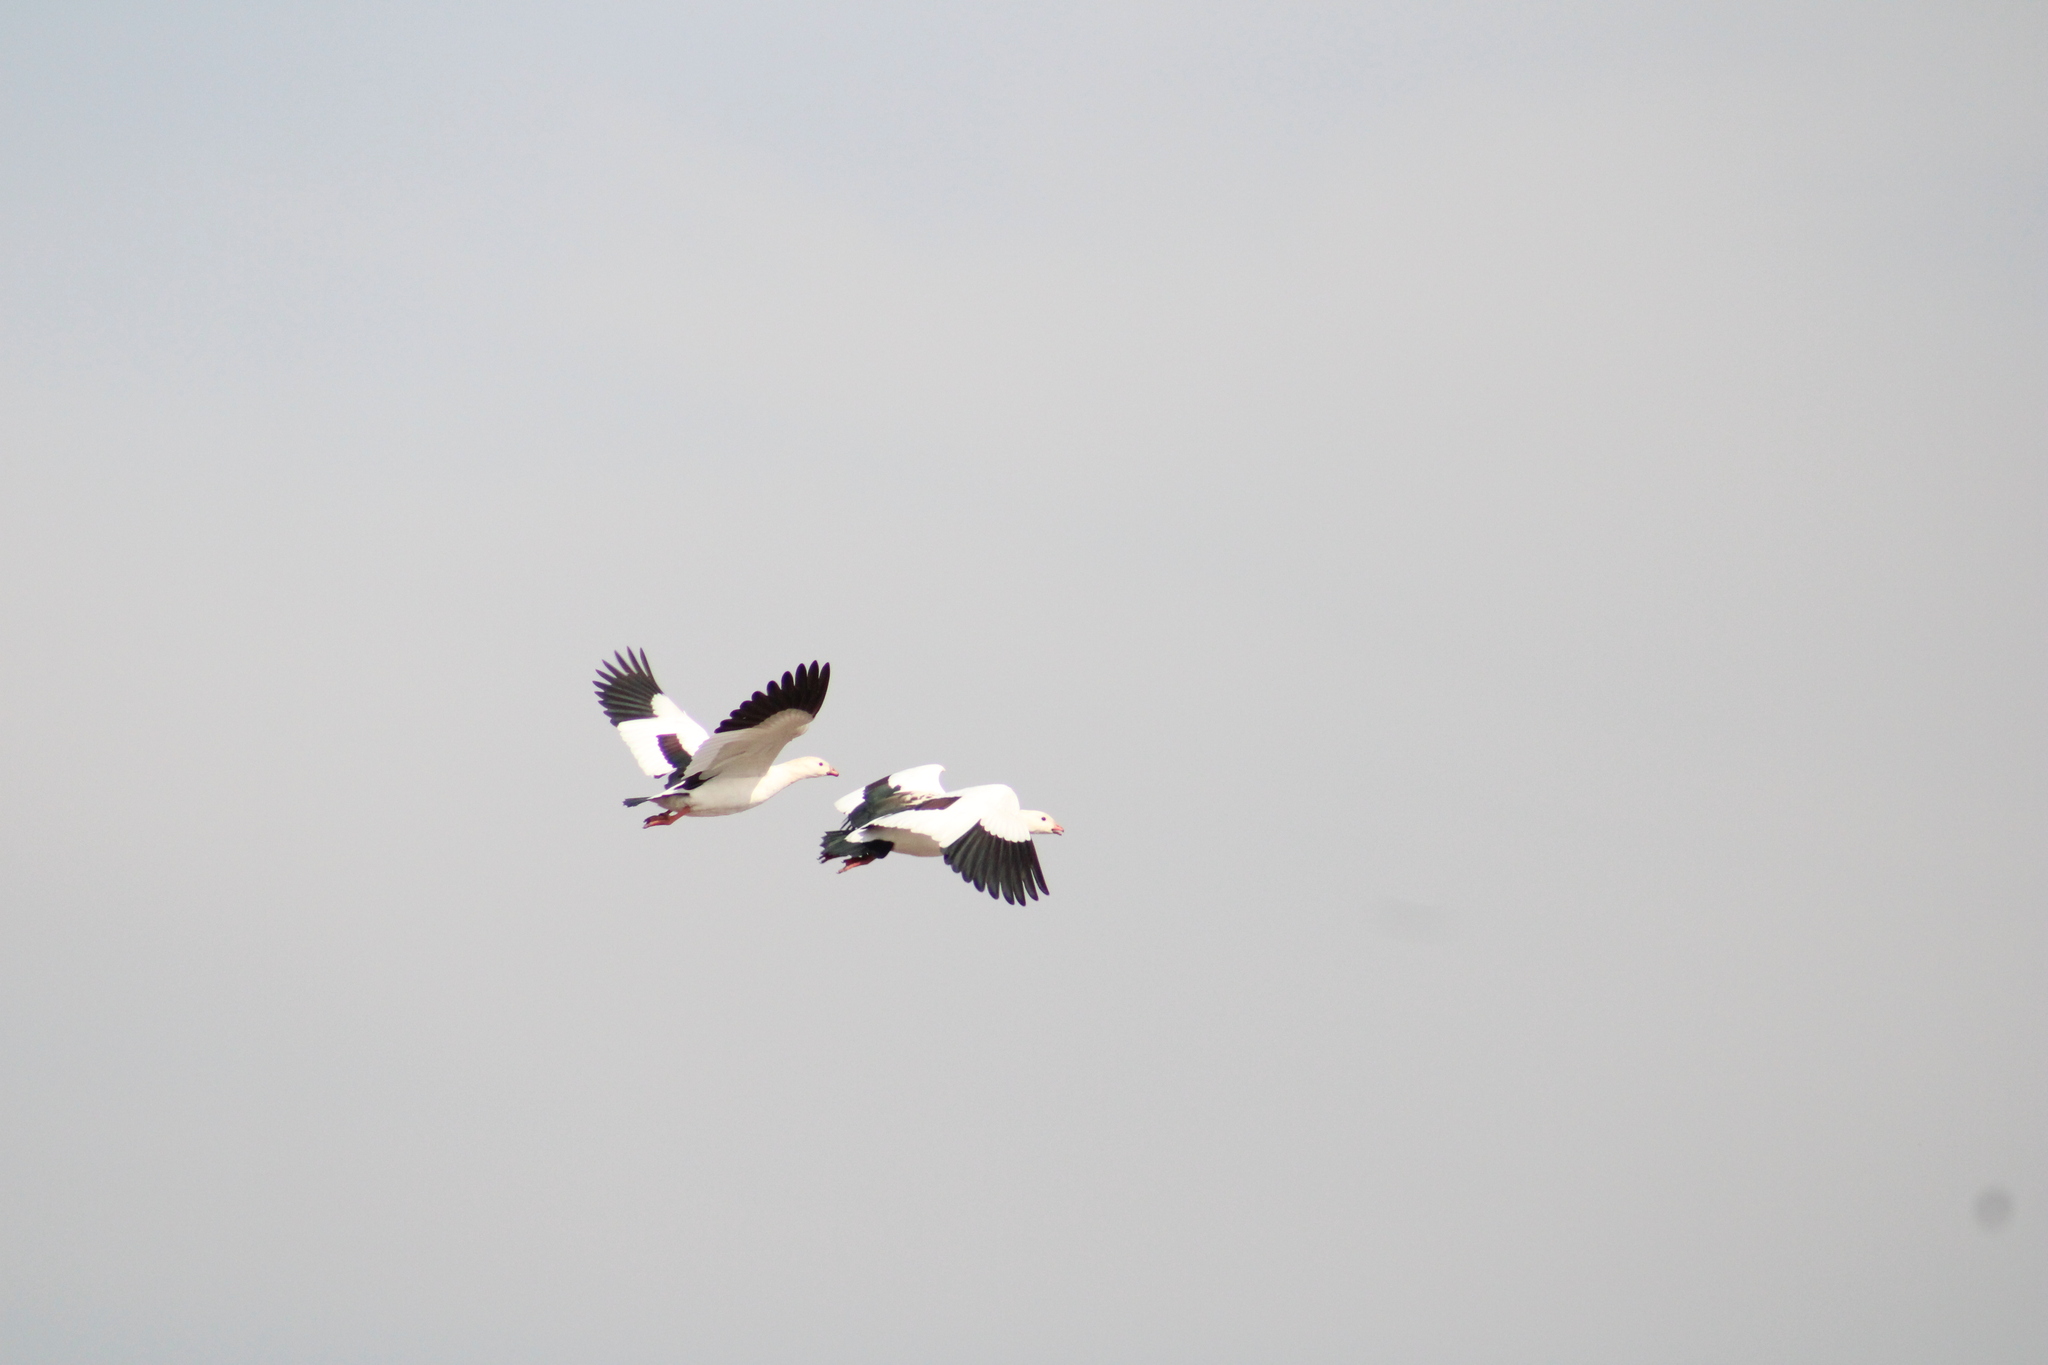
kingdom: Animalia
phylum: Chordata
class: Aves
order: Anseriformes
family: Anatidae
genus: Chloephaga
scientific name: Chloephaga melanoptera
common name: Andean goose
